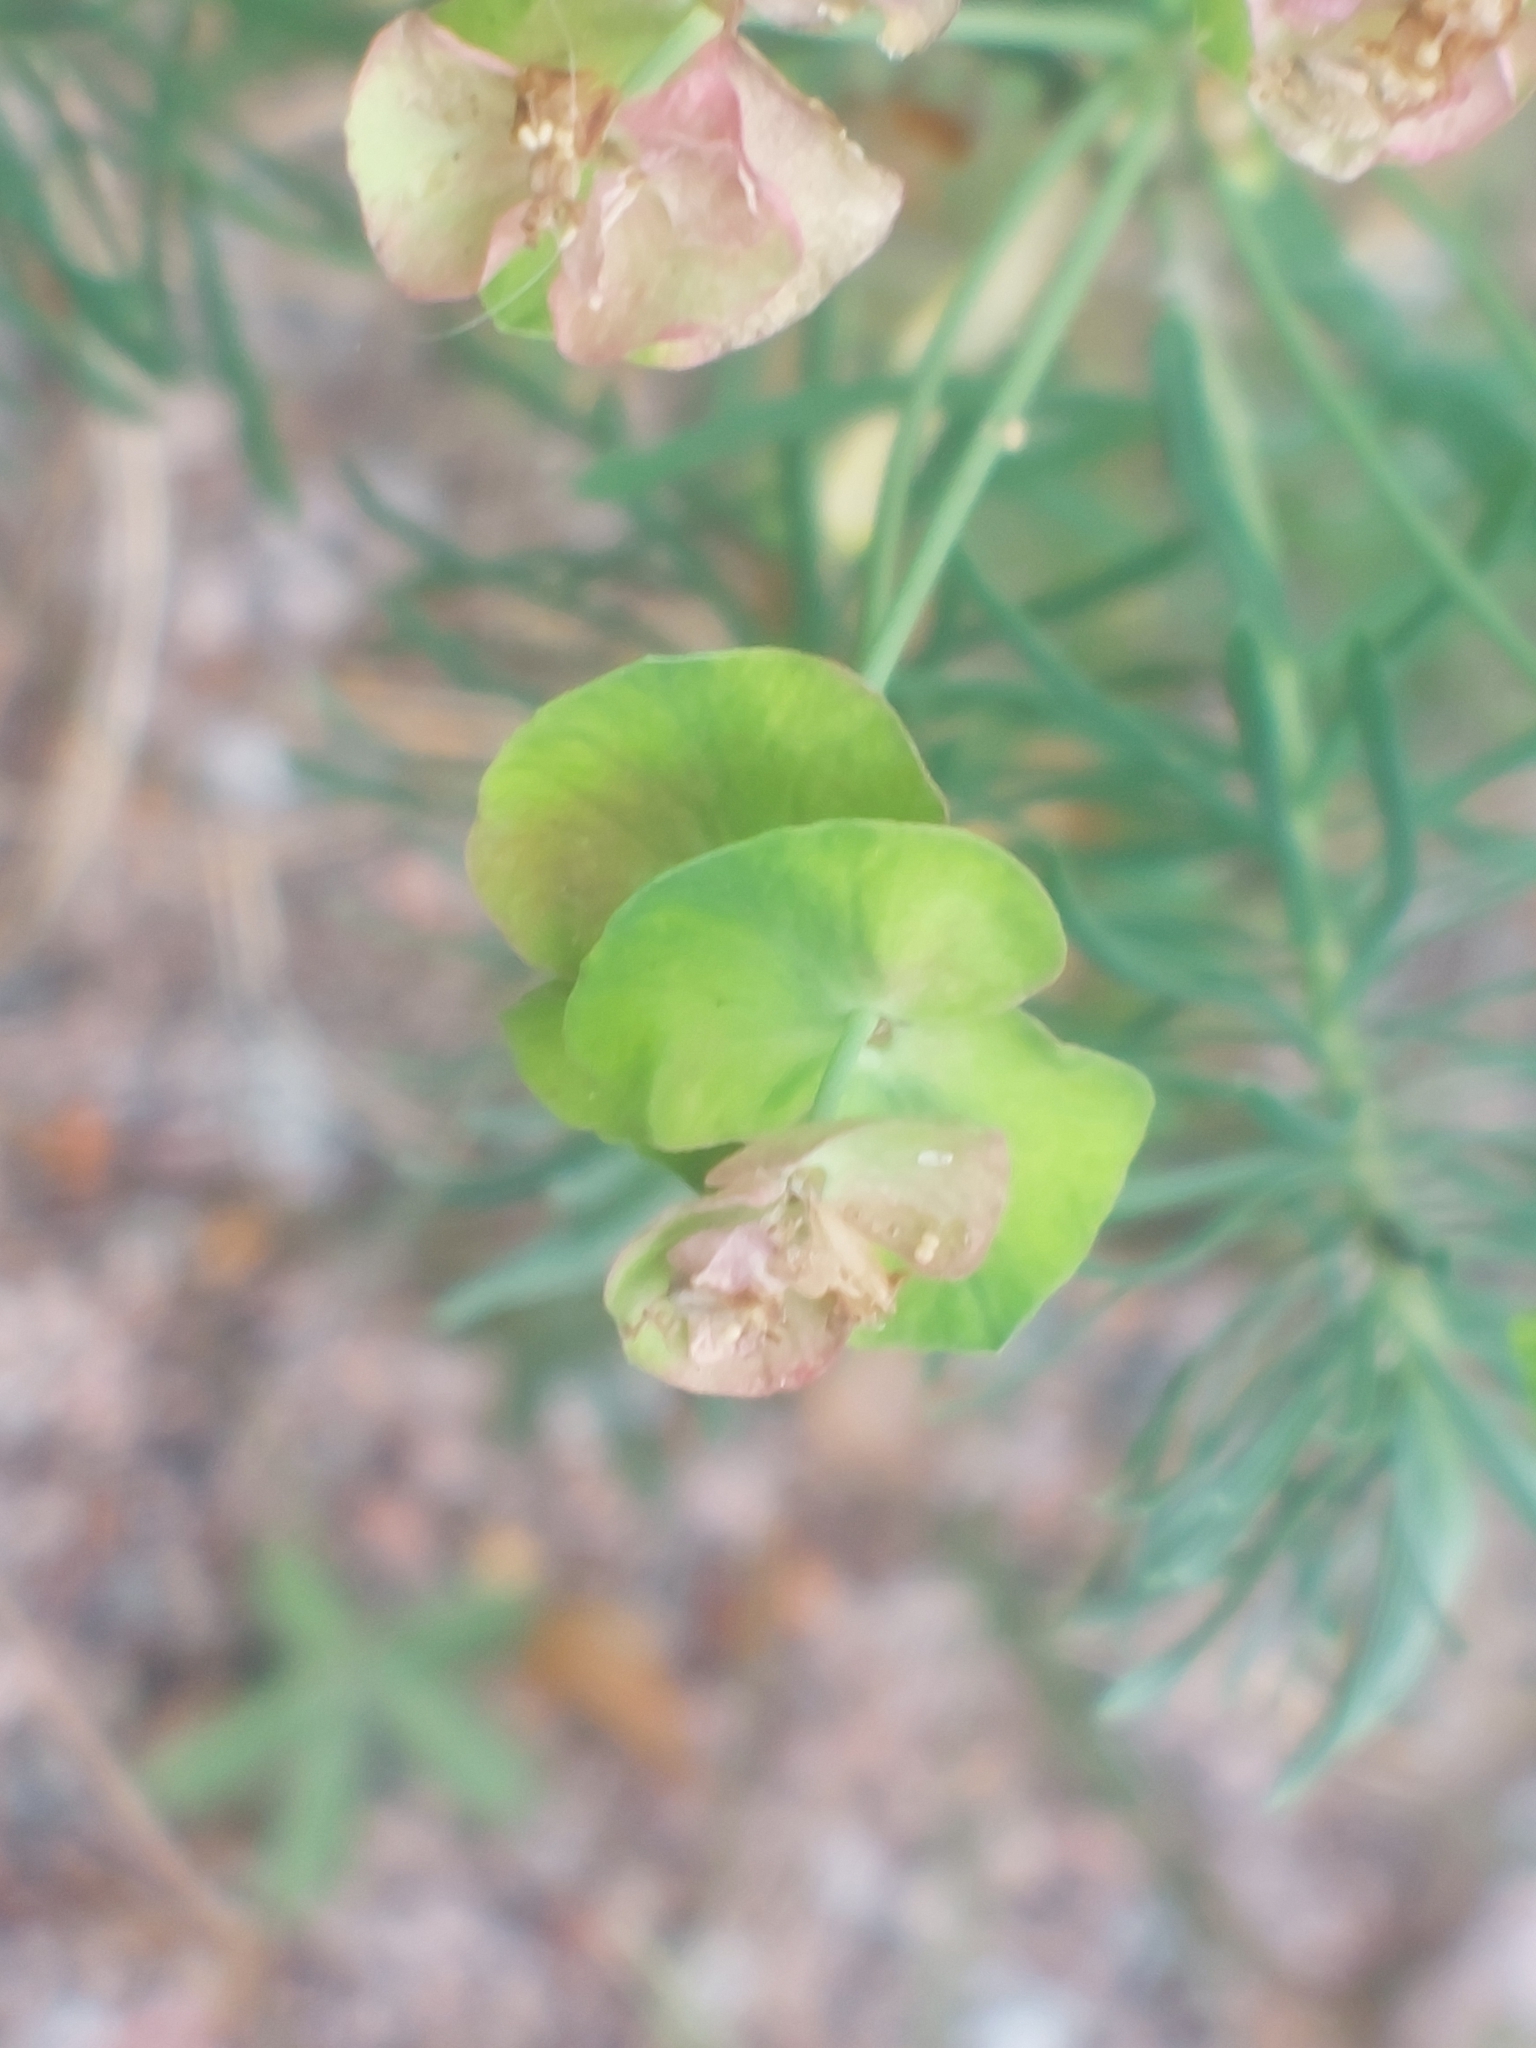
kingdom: Plantae
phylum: Tracheophyta
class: Magnoliopsida
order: Malpighiales
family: Euphorbiaceae
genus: Euphorbia
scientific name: Euphorbia cyparissias
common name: Cypress spurge
